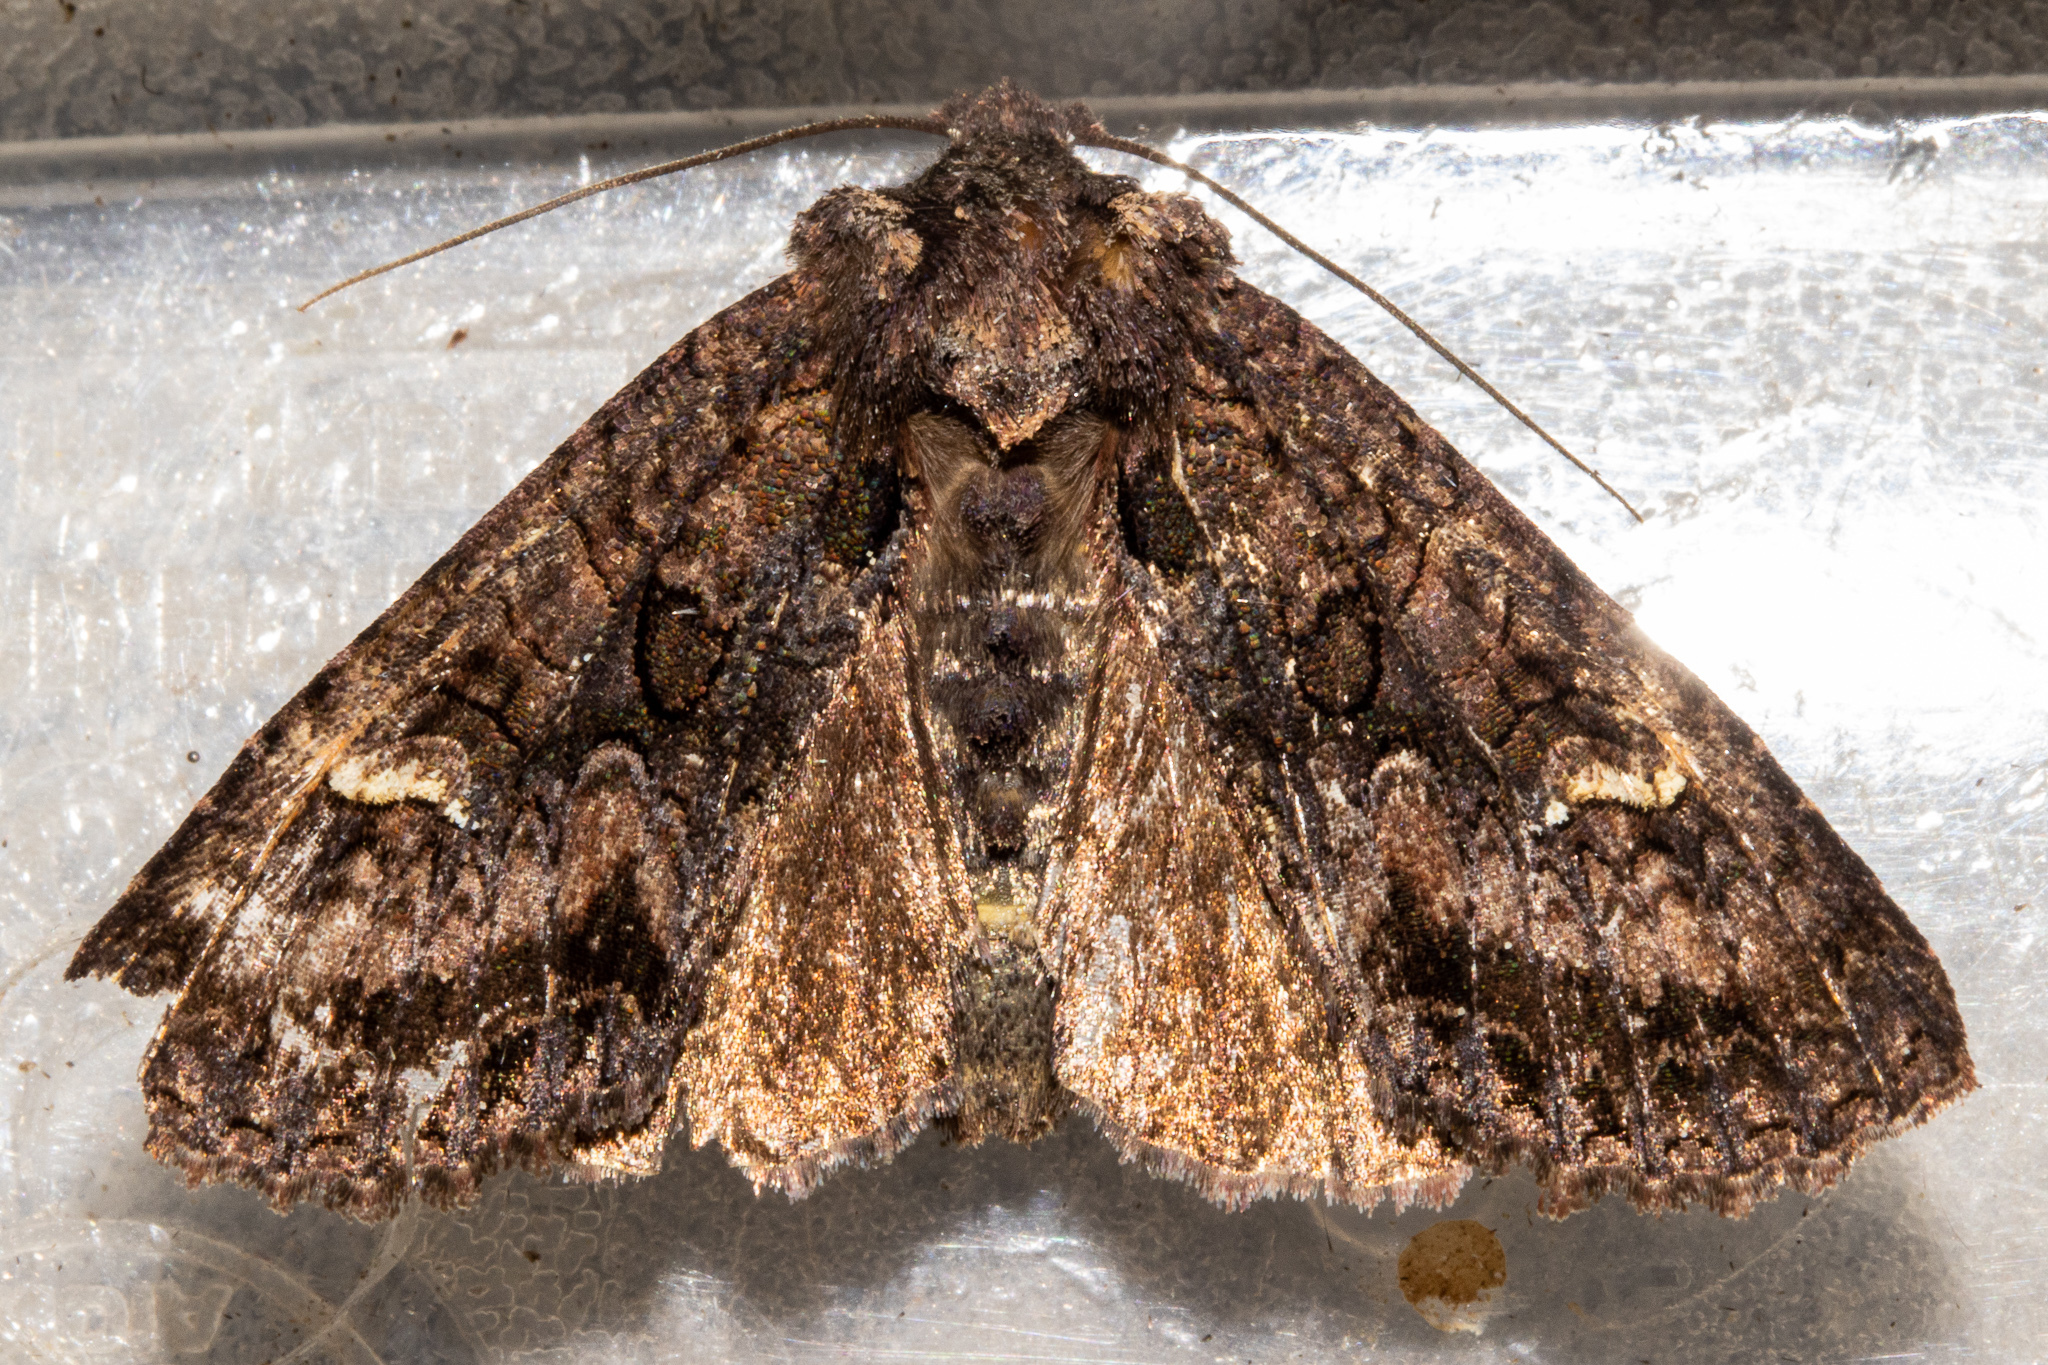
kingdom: Animalia
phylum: Arthropoda
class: Insecta
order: Lepidoptera
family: Noctuidae
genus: Meterana
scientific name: Meterana dotata
